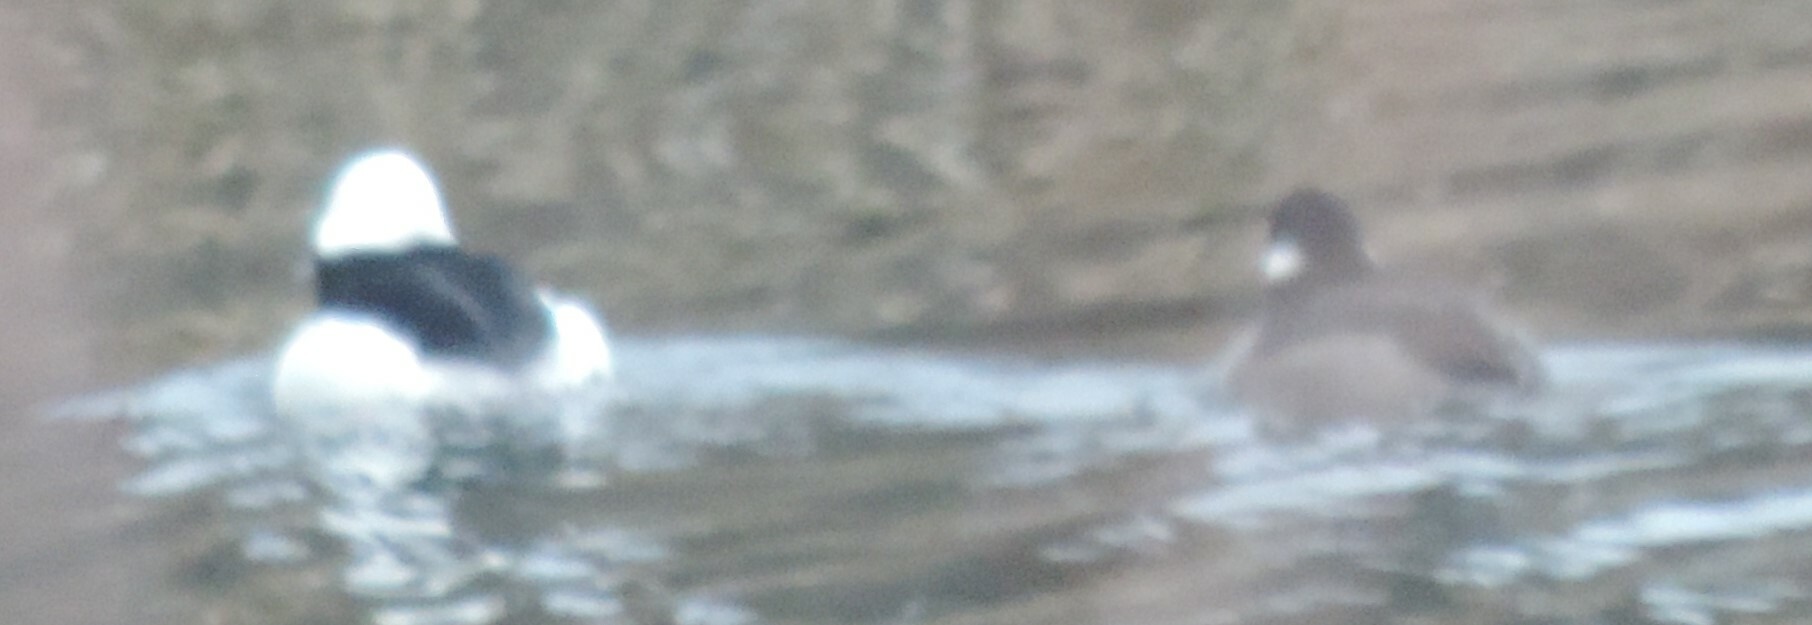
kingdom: Animalia
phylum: Chordata
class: Aves
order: Anseriformes
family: Anatidae
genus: Bucephala
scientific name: Bucephala albeola
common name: Bufflehead
